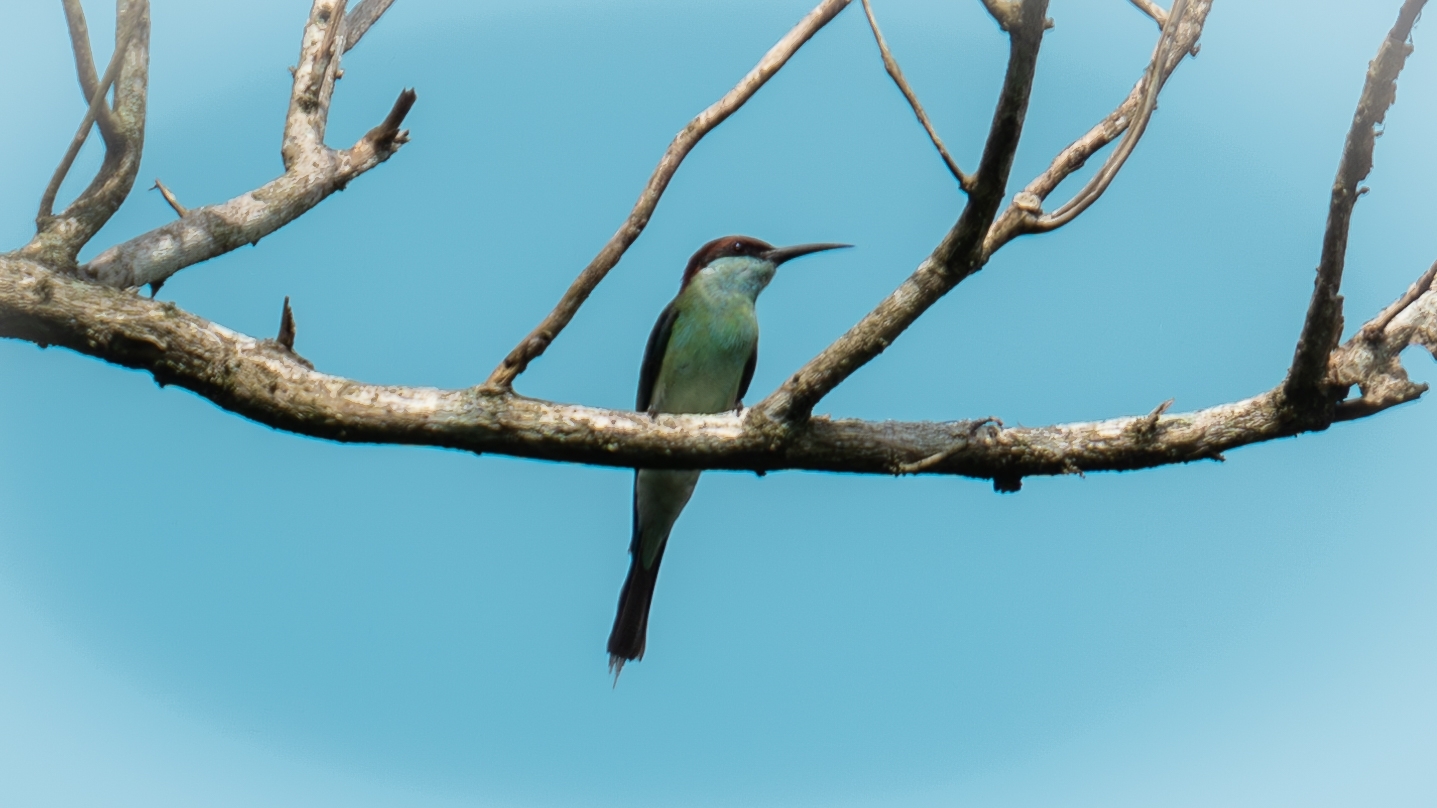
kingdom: Animalia
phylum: Chordata
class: Aves
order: Coraciiformes
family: Meropidae
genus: Merops
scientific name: Merops viridis
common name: Blue-throated bee-eater
